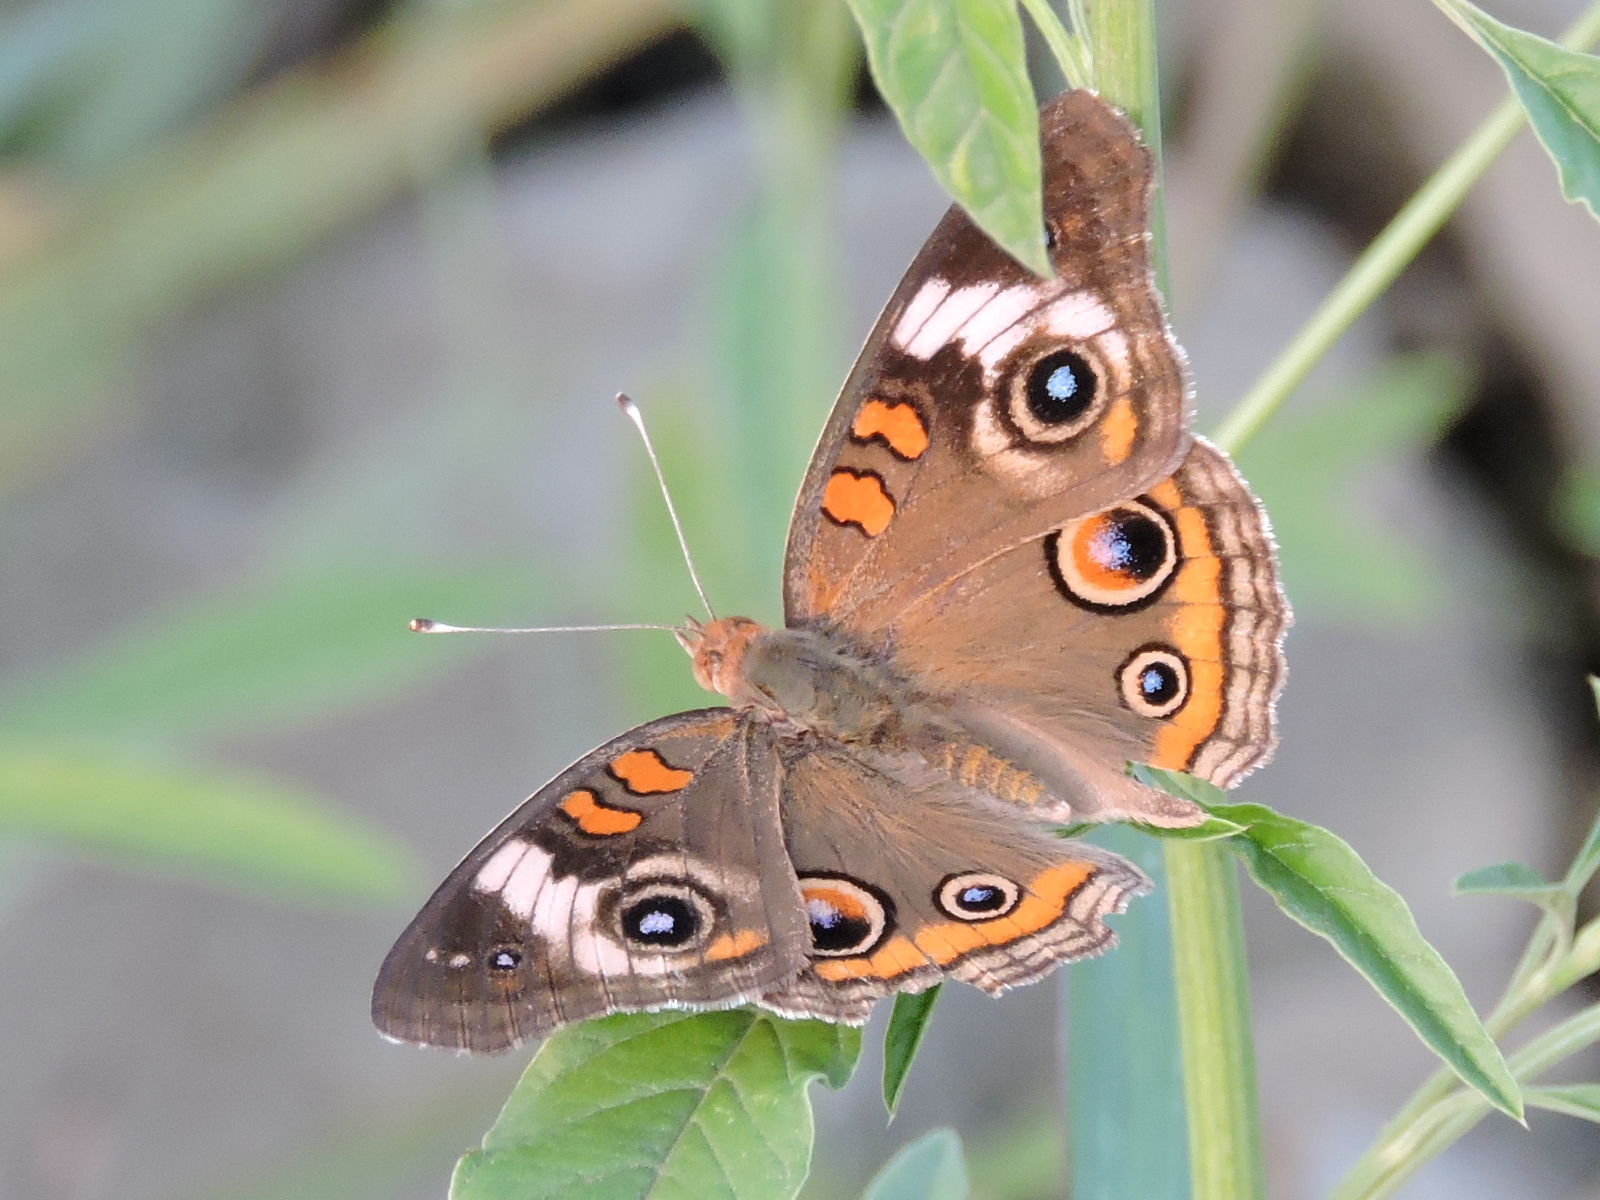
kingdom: Animalia
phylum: Arthropoda
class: Insecta
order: Lepidoptera
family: Nymphalidae
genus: Junonia
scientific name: Junonia coenia
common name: Common buckeye
